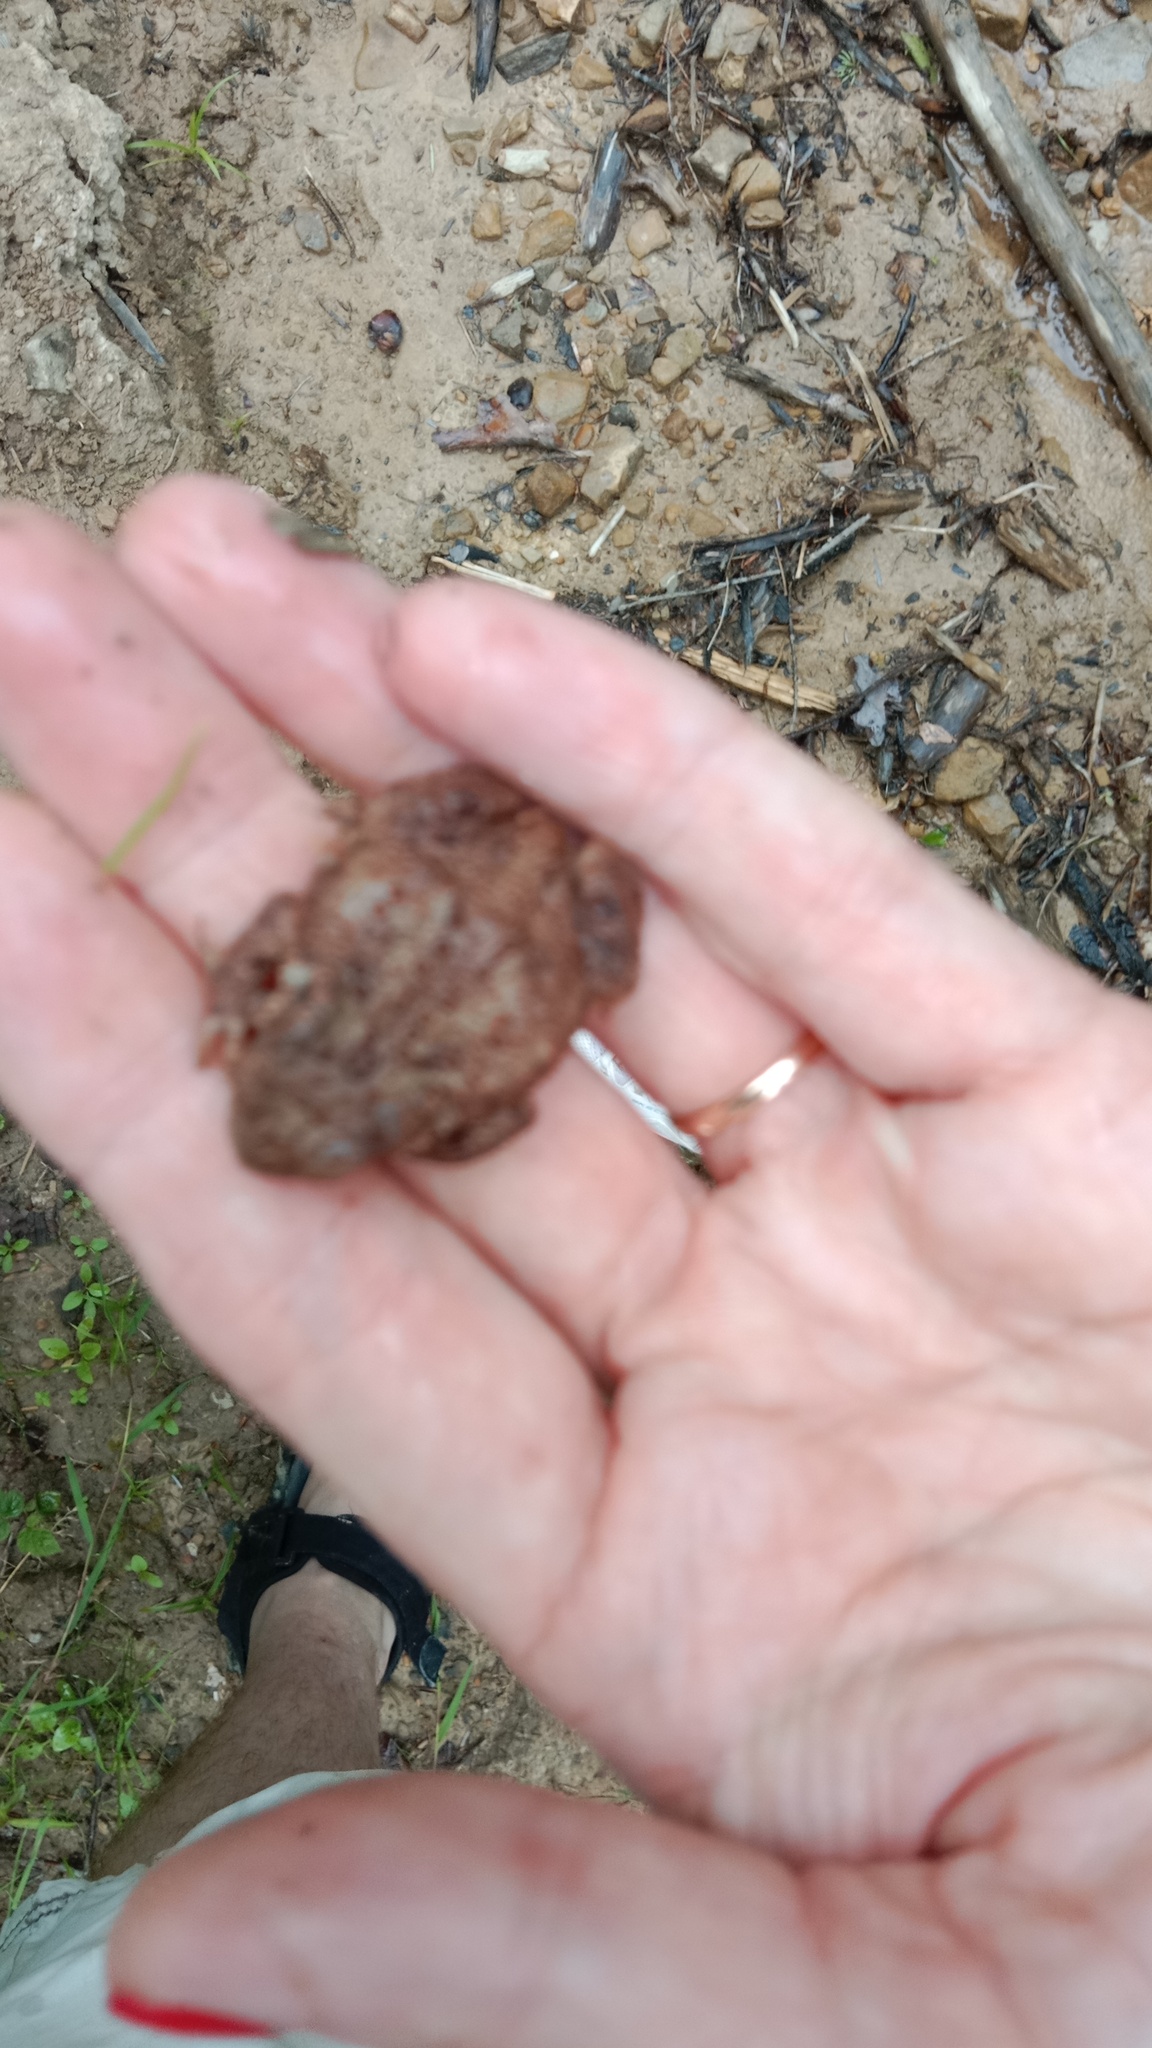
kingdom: Animalia
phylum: Chordata
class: Amphibia
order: Anura
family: Bufonidae
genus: Bufo
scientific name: Bufo bufo
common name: Common toad
